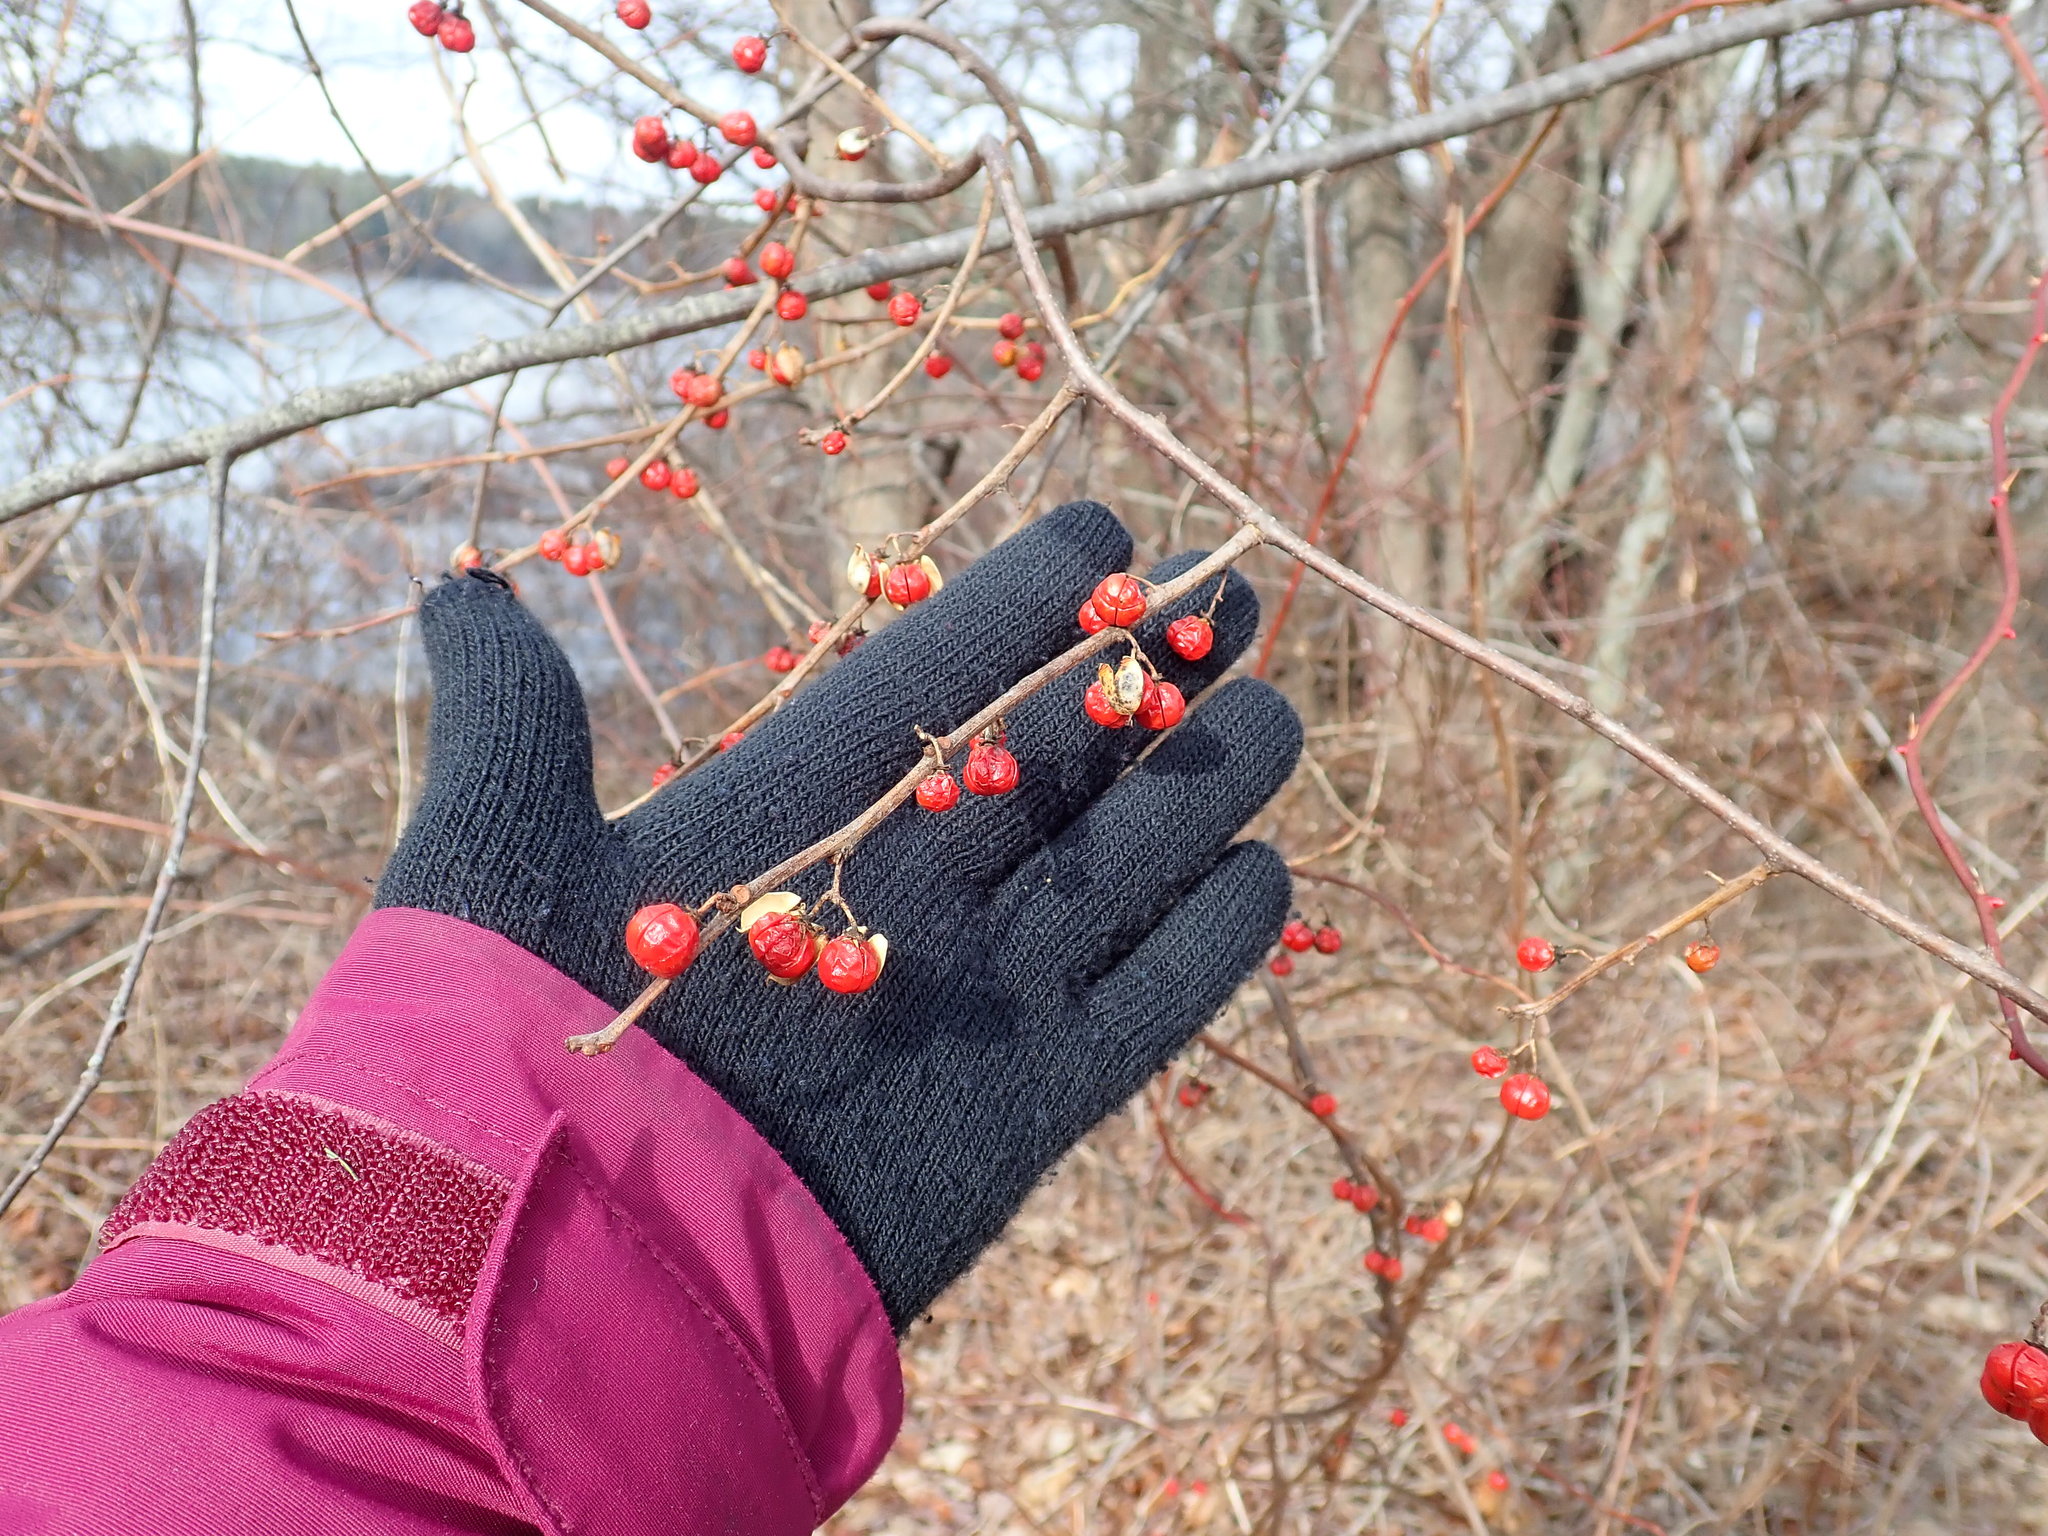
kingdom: Plantae
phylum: Tracheophyta
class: Magnoliopsida
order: Celastrales
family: Celastraceae
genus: Celastrus
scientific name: Celastrus orbiculatus
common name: Oriental bittersweet
